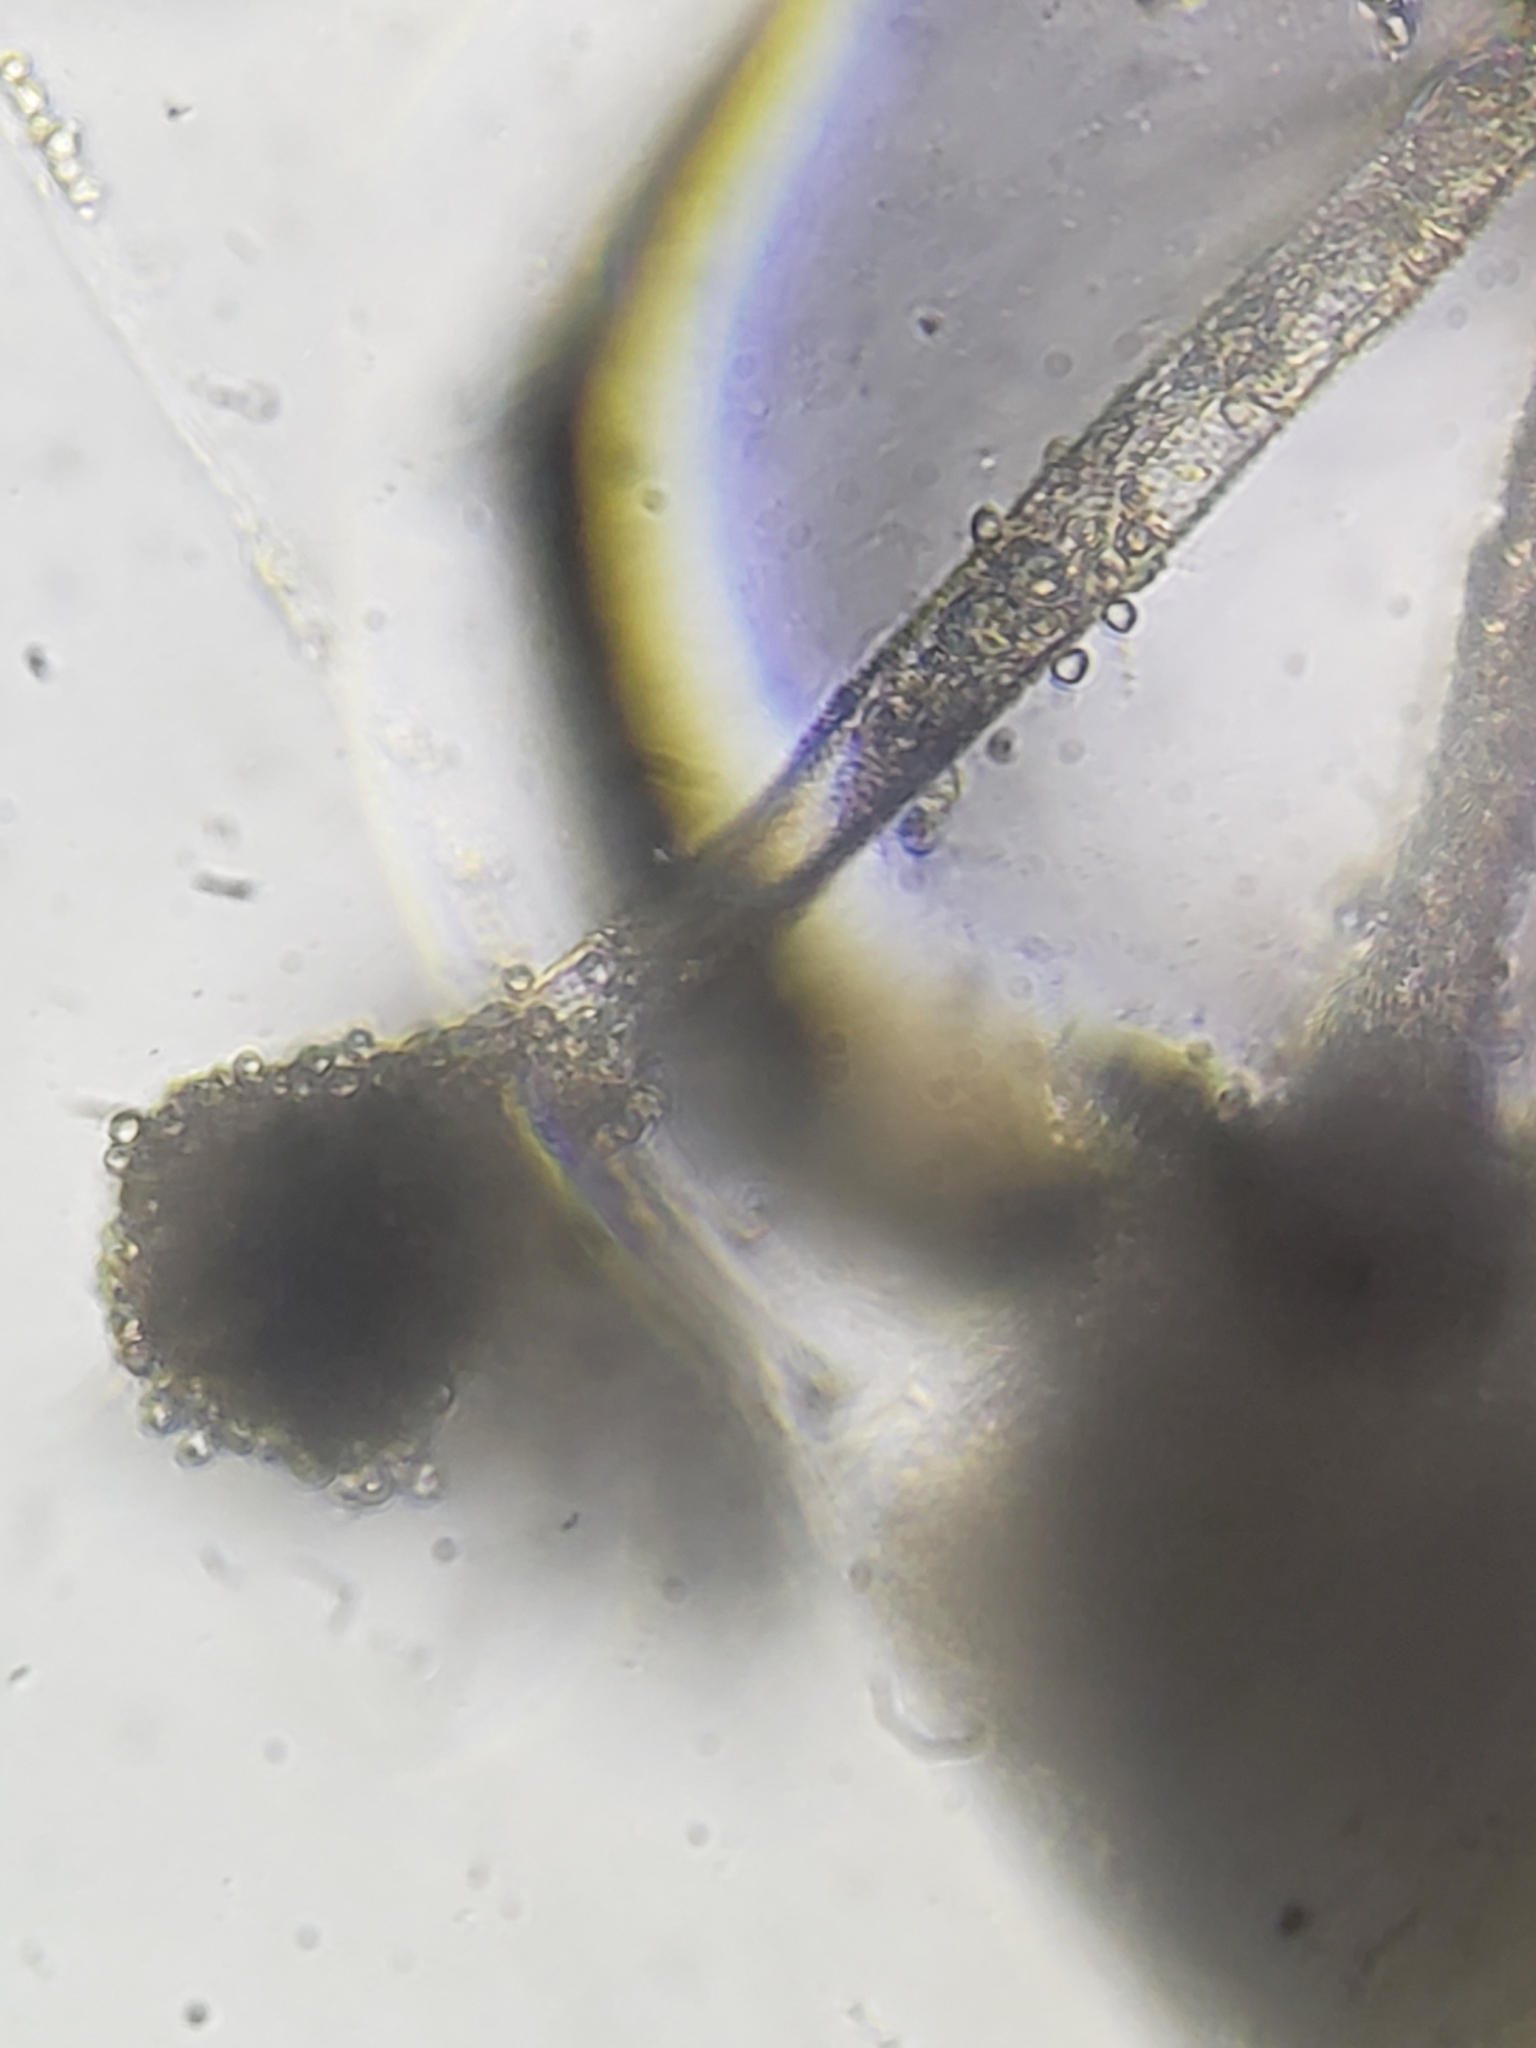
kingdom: Fungi
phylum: Ascomycota
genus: Gloiosphaera
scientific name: Gloiosphaera
